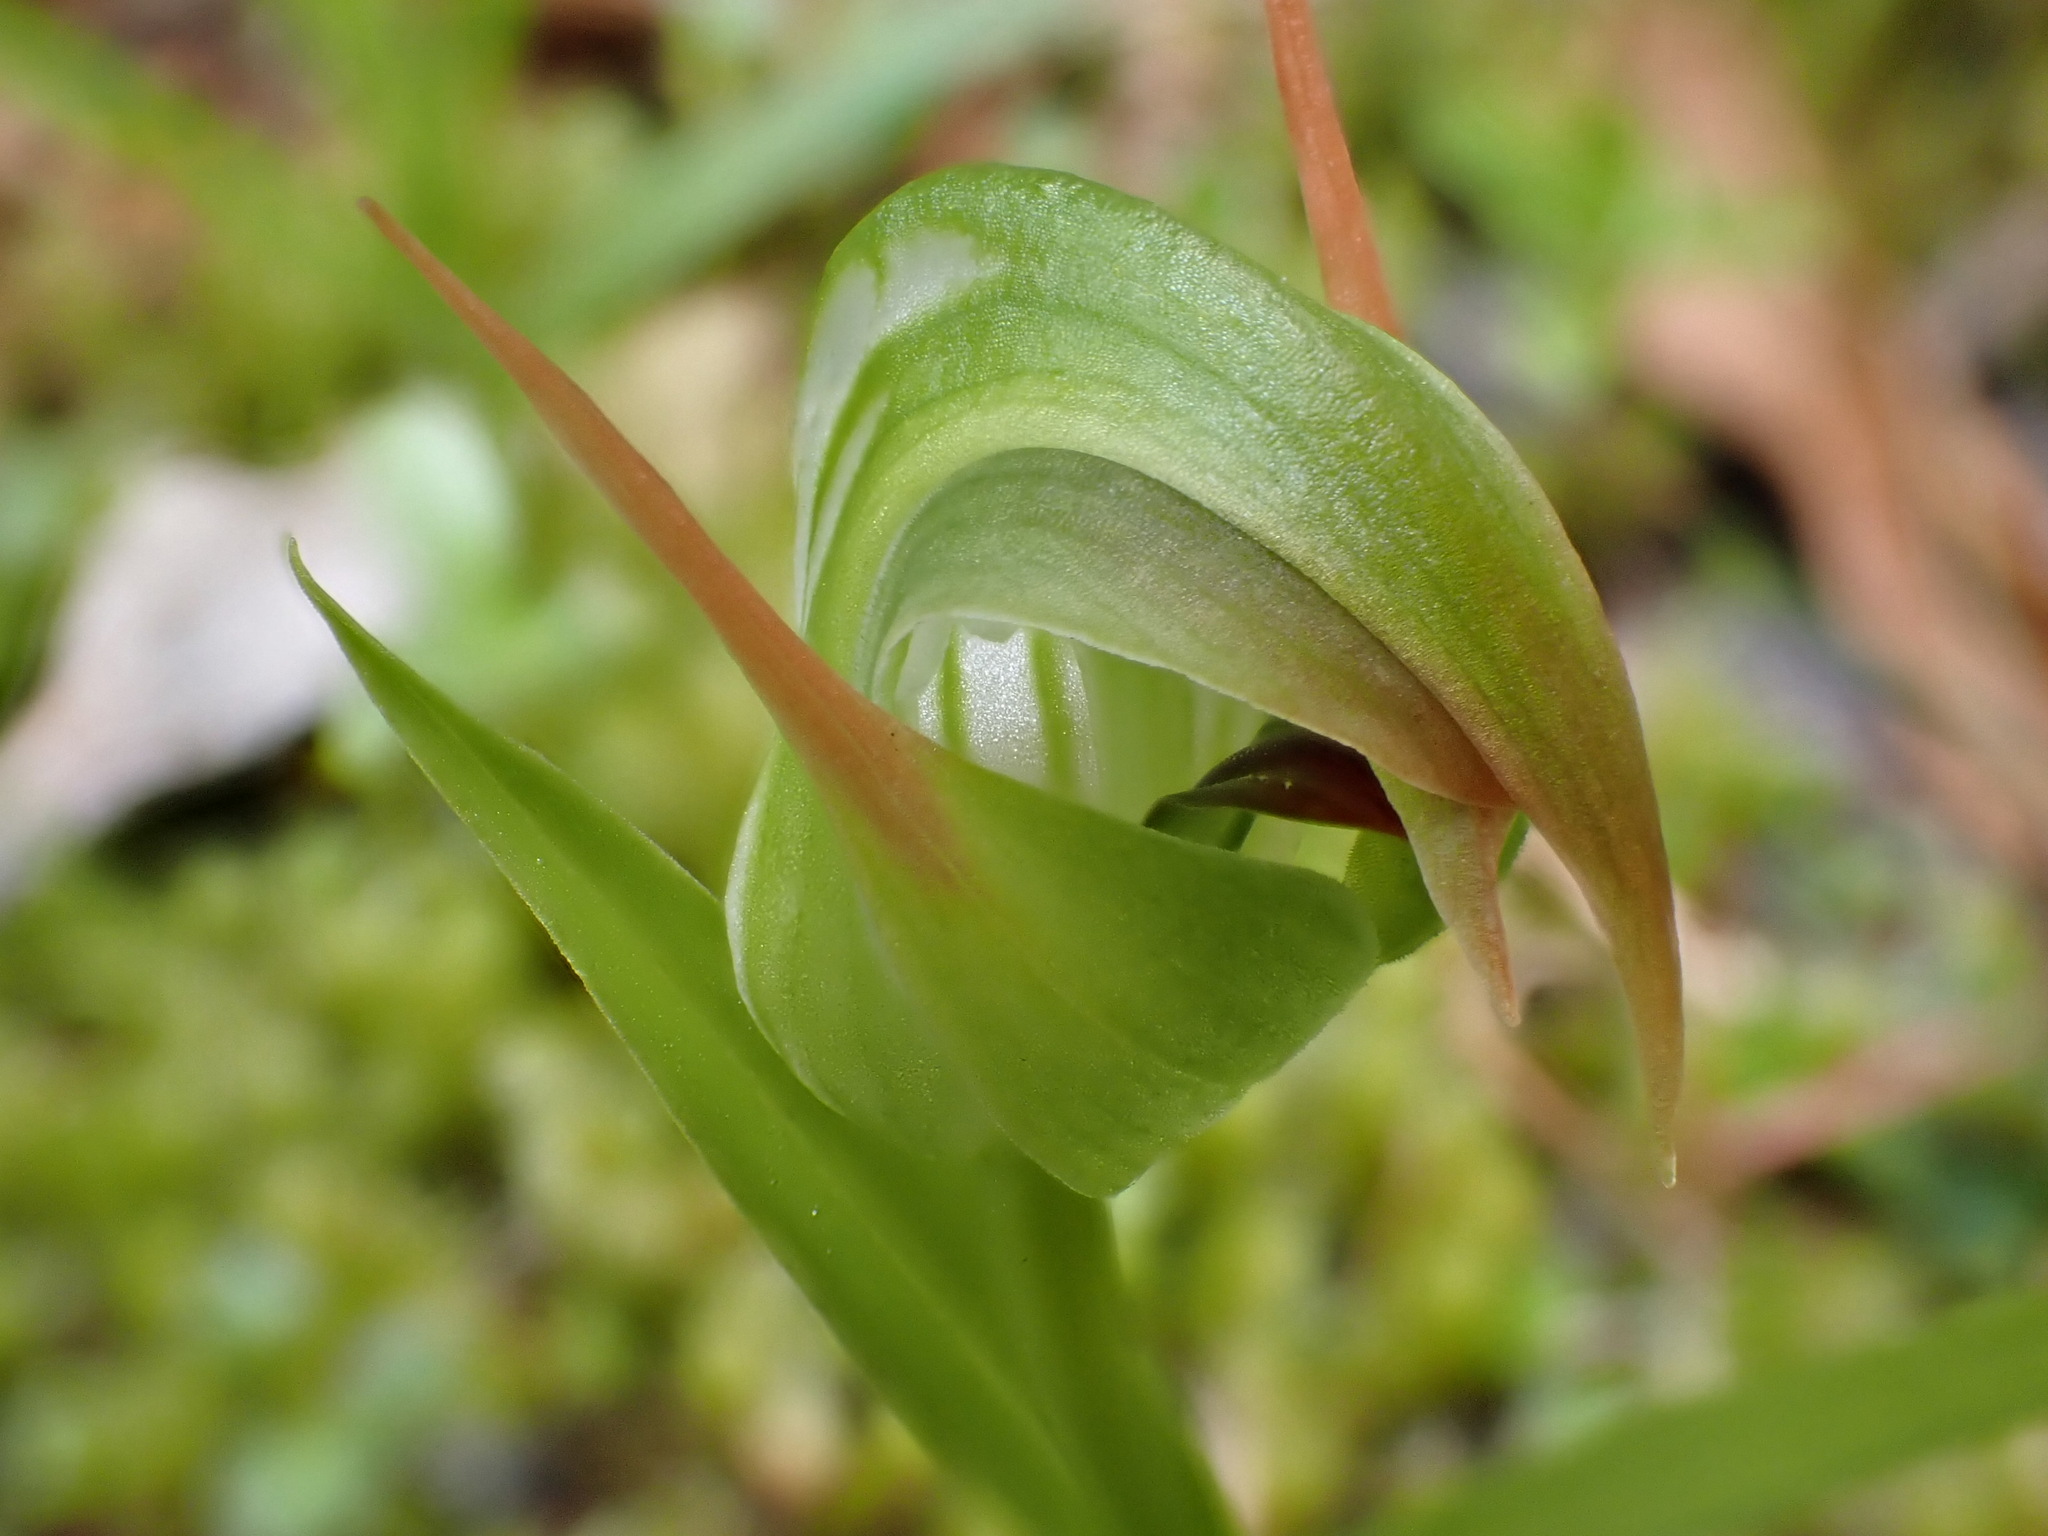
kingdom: Plantae
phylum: Tracheophyta
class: Liliopsida
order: Asparagales
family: Orchidaceae
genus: Pterostylis
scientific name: Pterostylis montana
